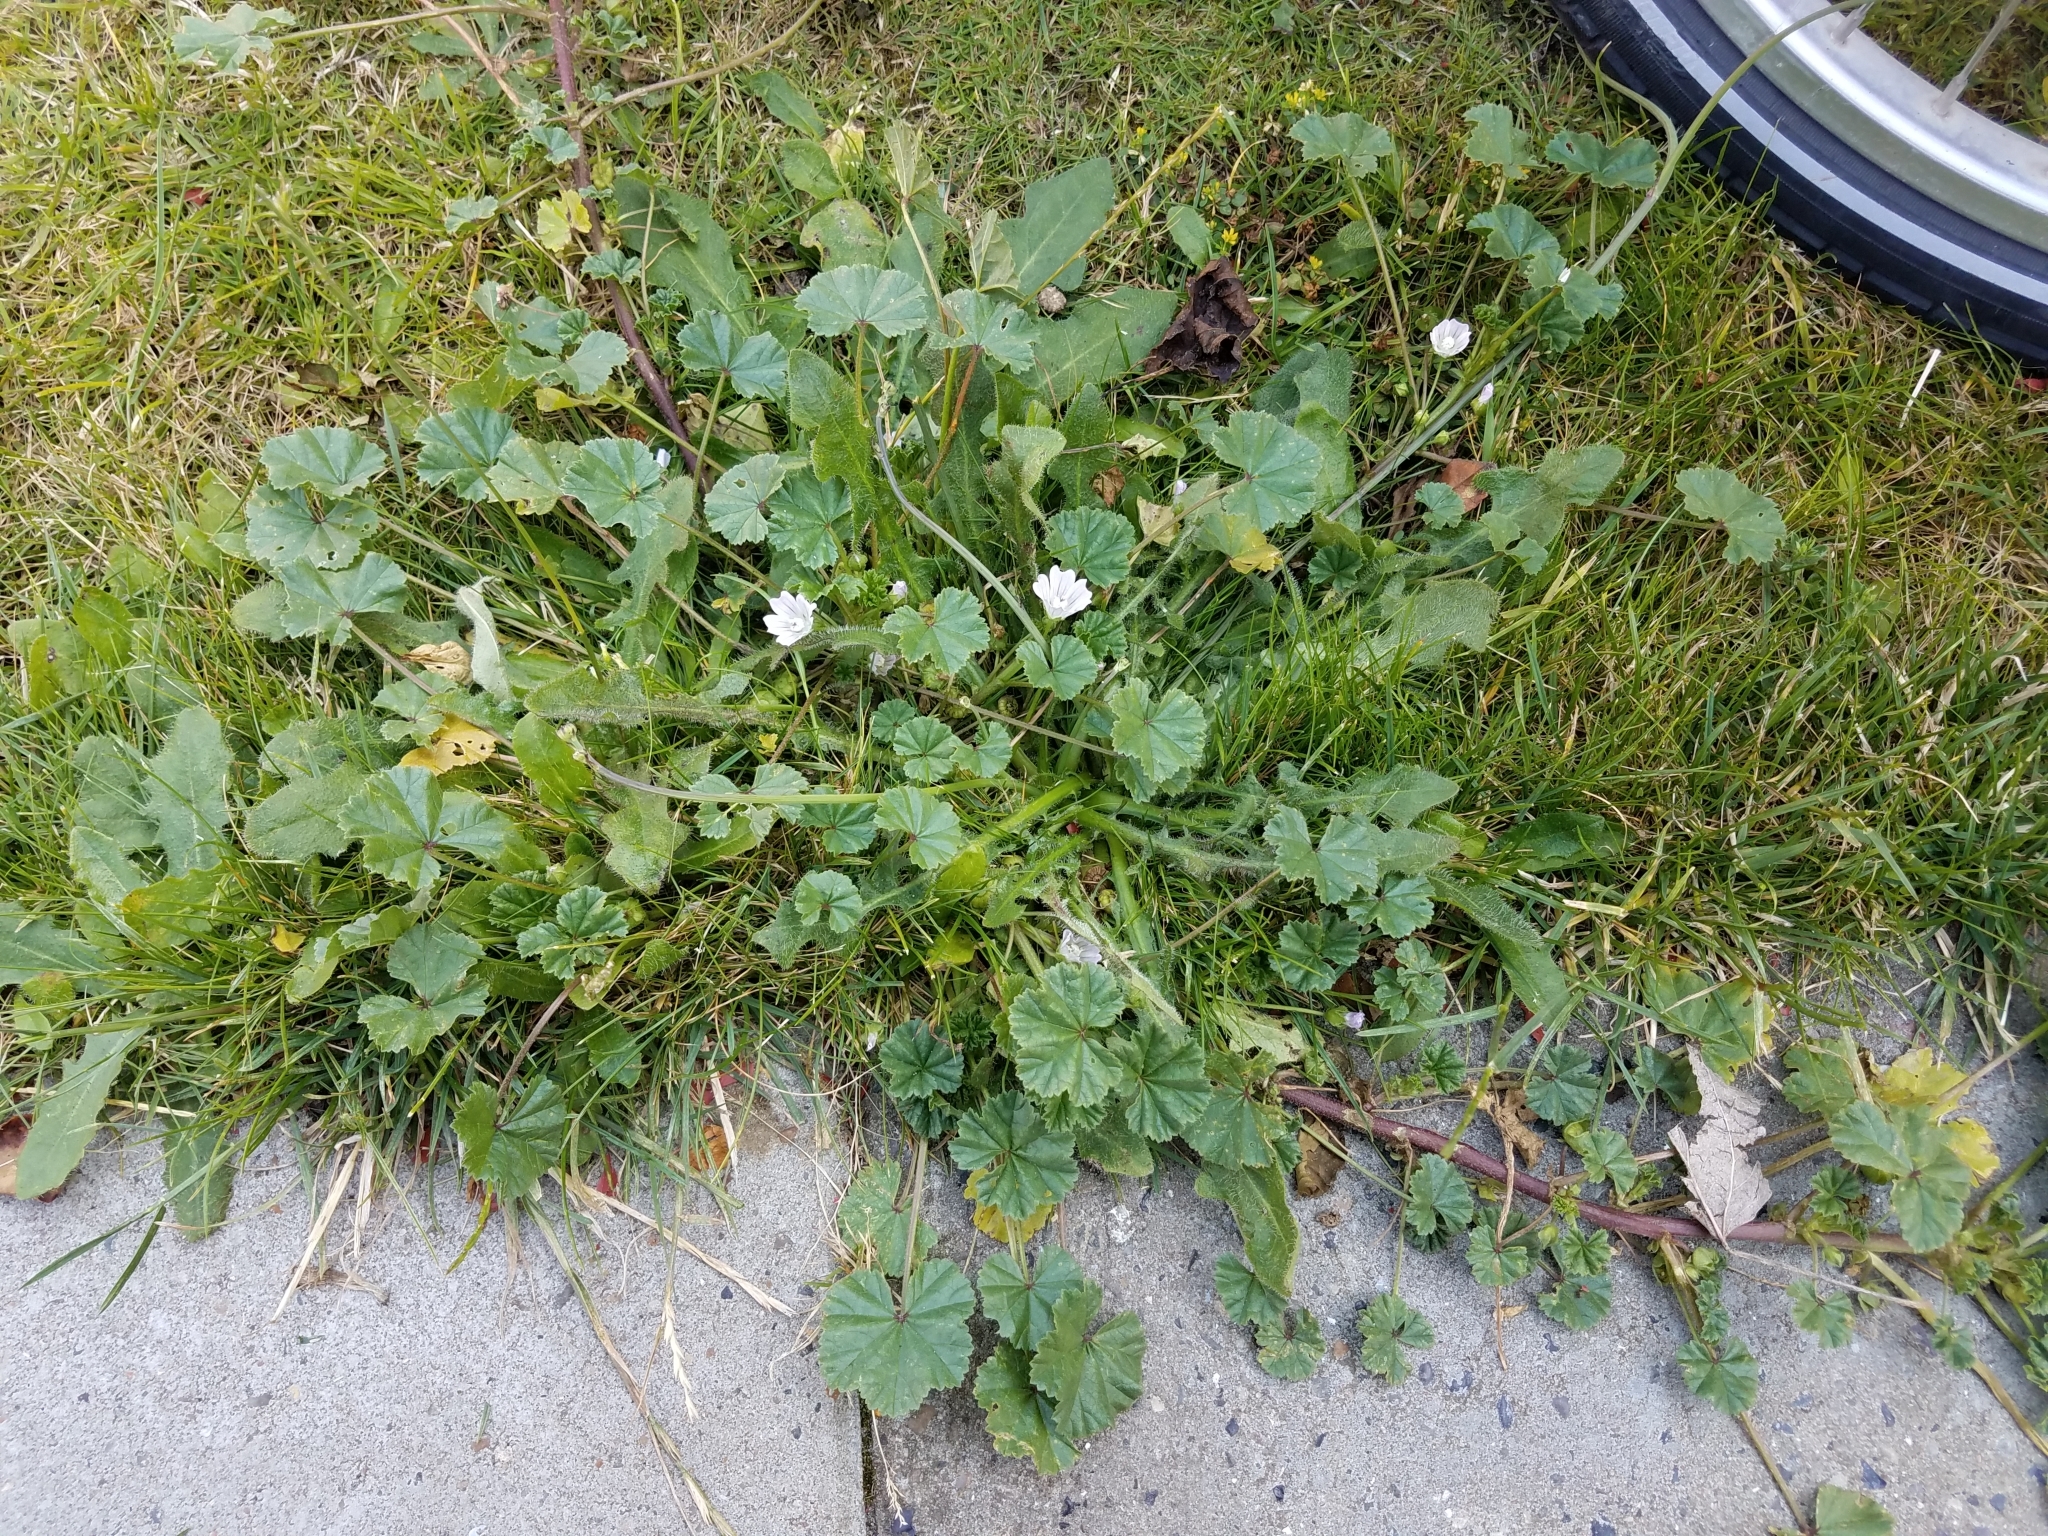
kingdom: Plantae
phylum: Tracheophyta
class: Magnoliopsida
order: Malvales
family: Malvaceae
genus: Malva
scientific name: Malva neglecta
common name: Common mallow
